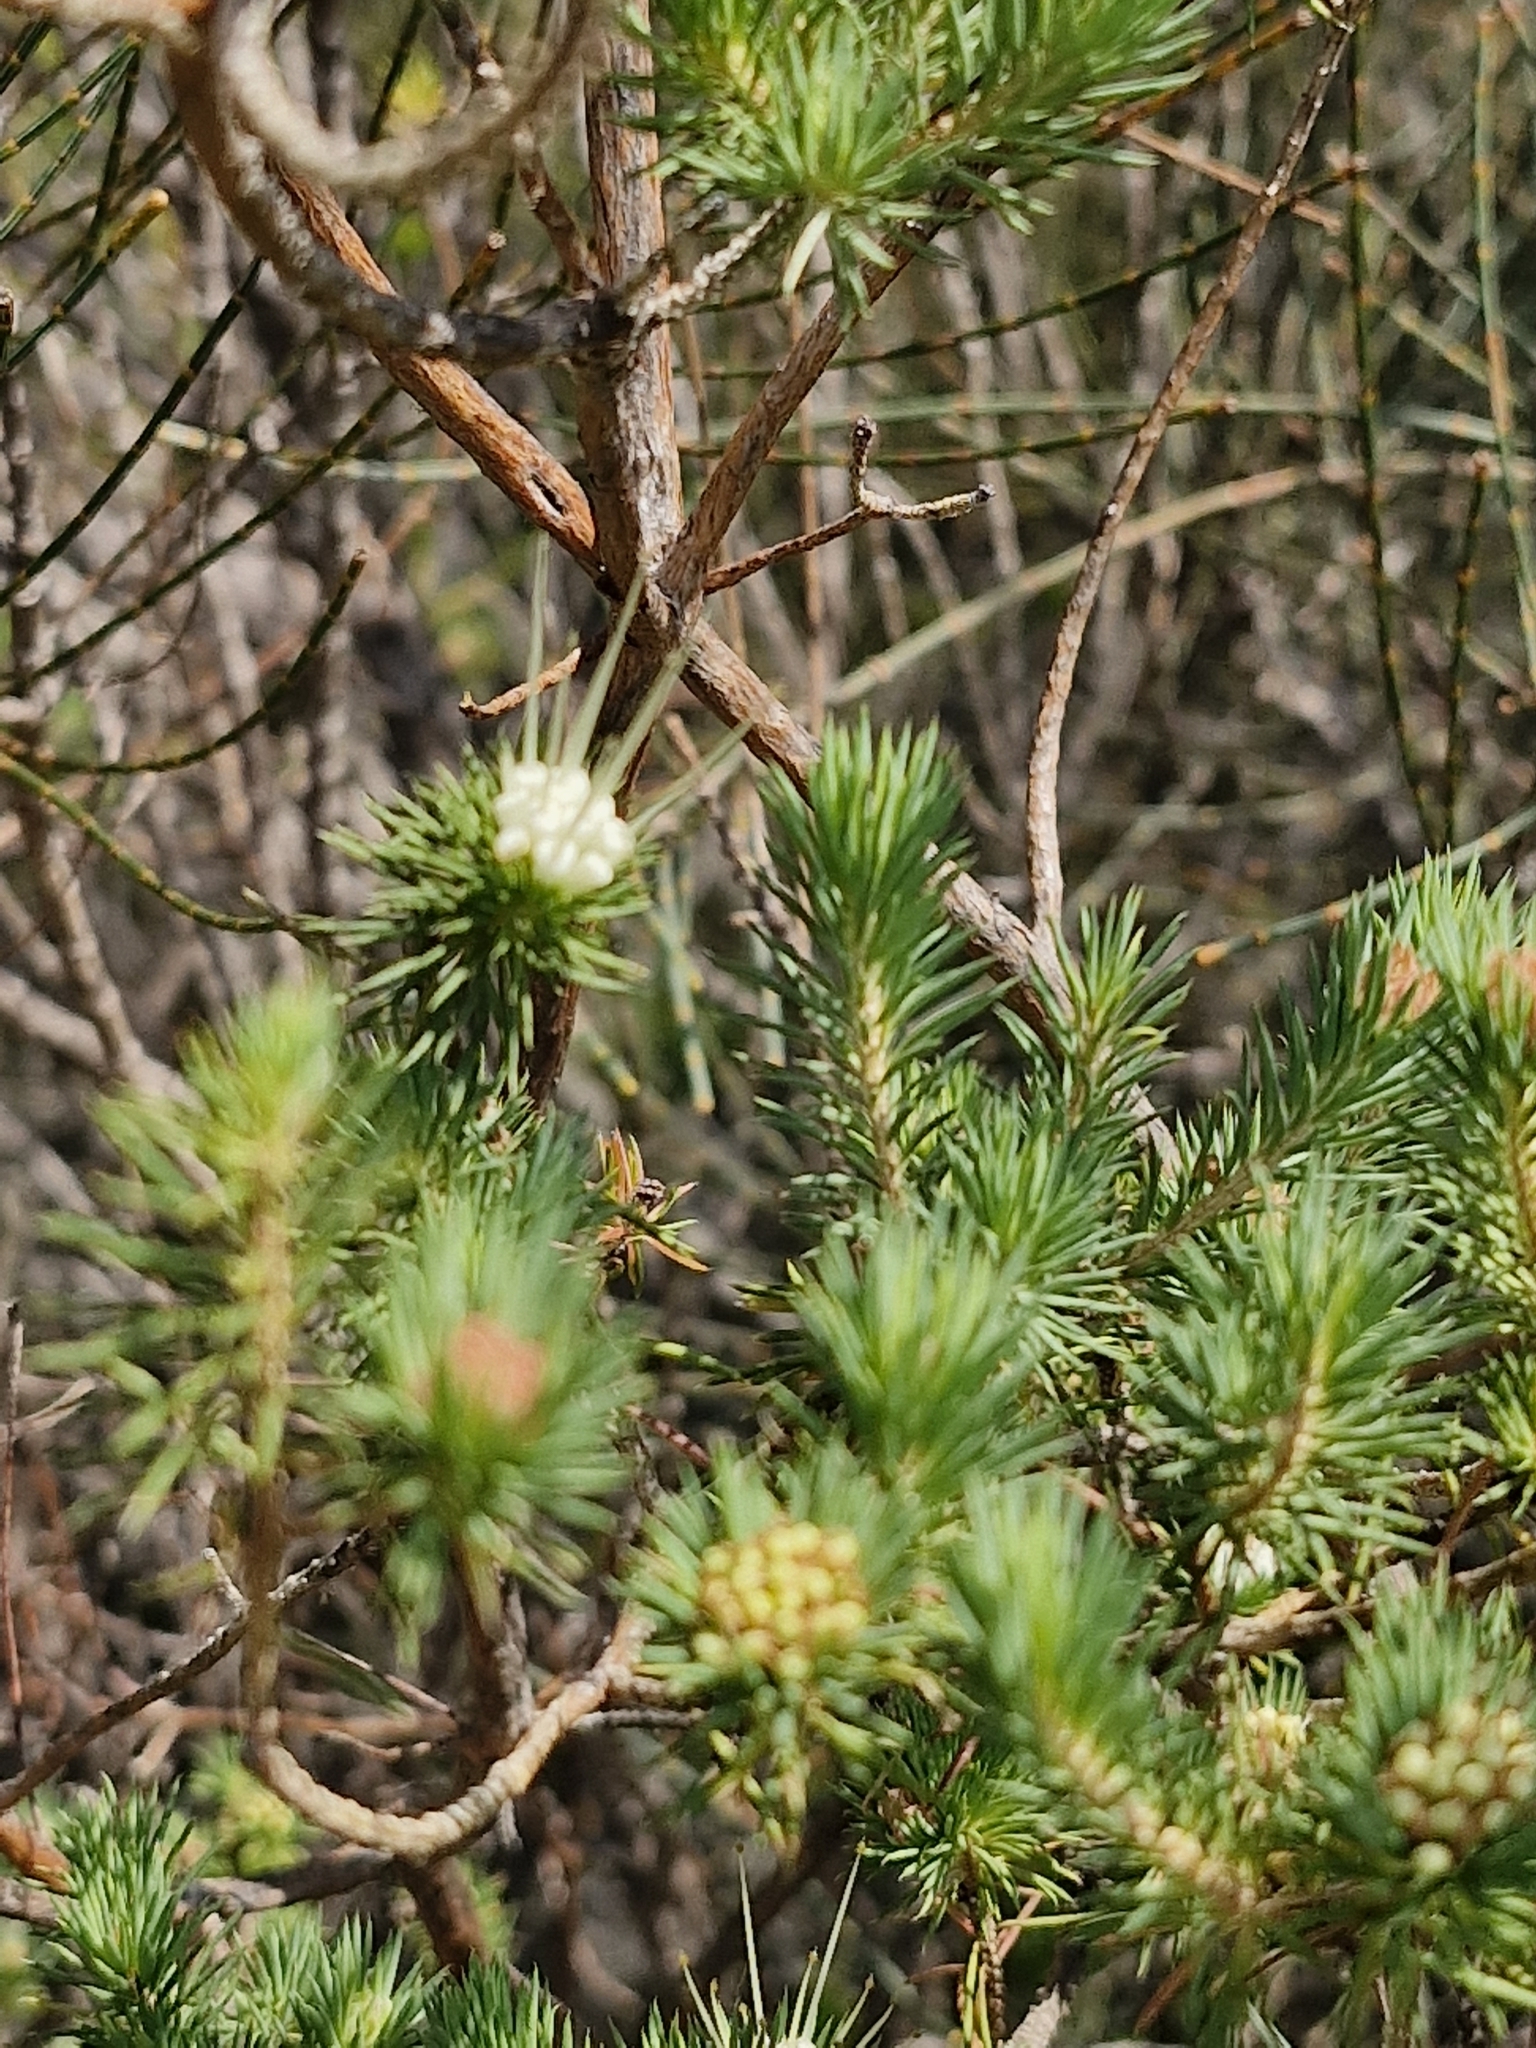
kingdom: Plantae
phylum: Tracheophyta
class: Magnoliopsida
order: Myrtales
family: Myrtaceae
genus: Darwinia
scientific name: Darwinia fascicularis
